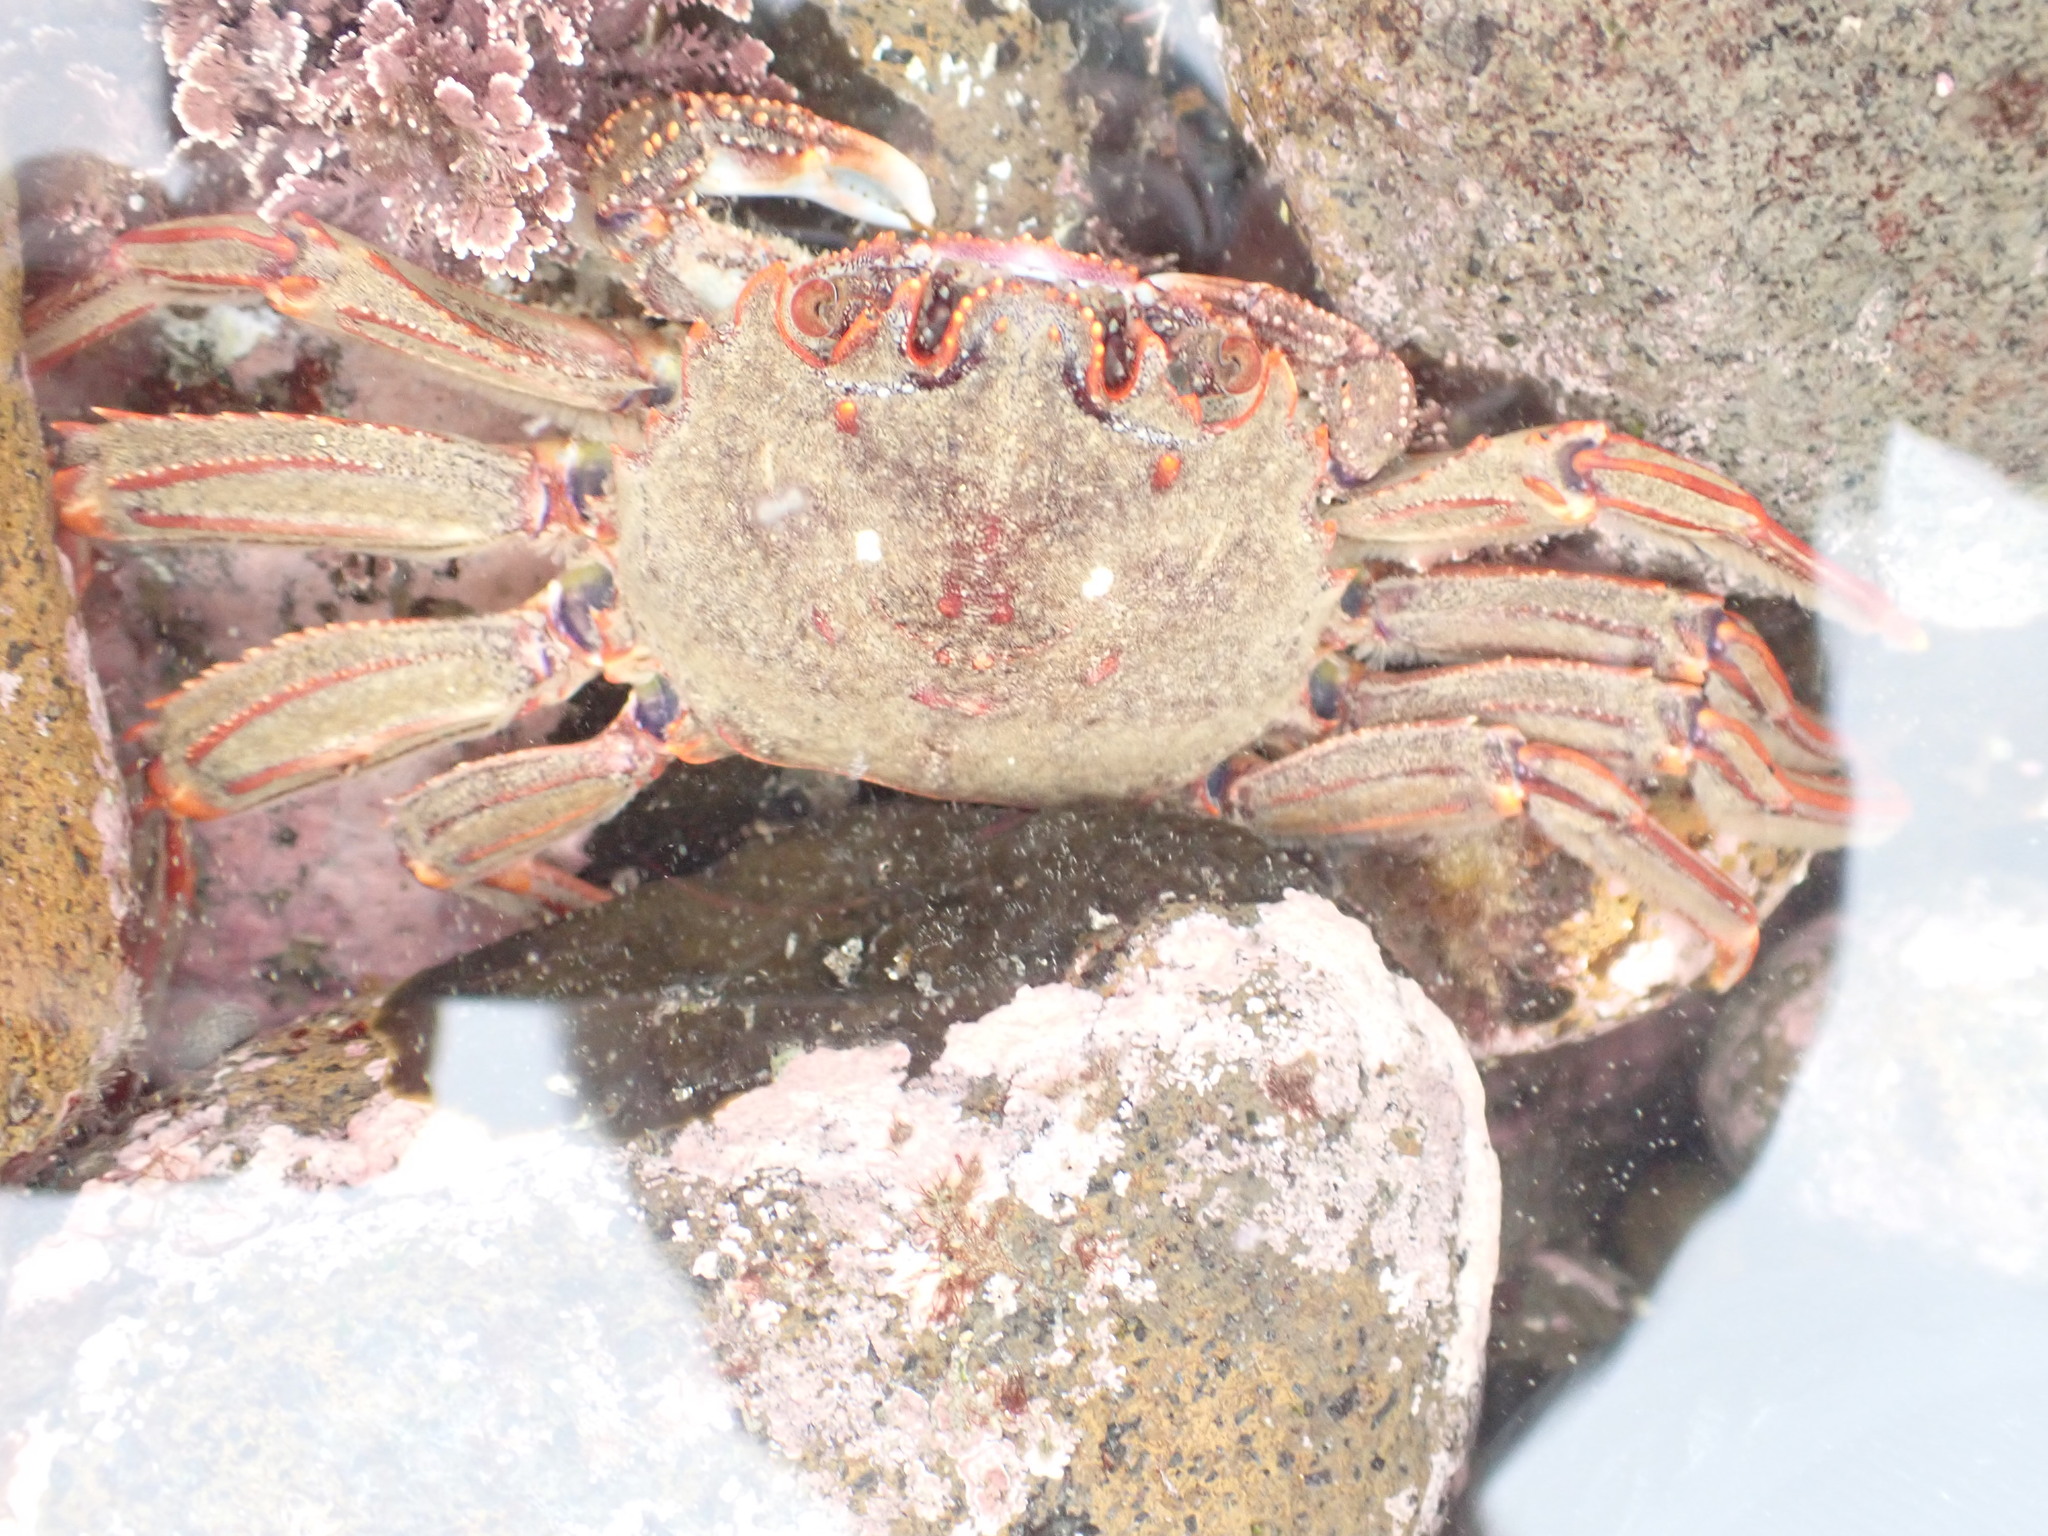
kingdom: Animalia
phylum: Arthropoda
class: Malacostraca
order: Decapoda
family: Plagusiidae
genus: Guinusia
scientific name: Guinusia chabrus
